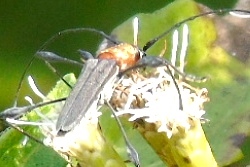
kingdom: Animalia
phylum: Arthropoda
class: Insecta
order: Coleoptera
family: Cerambycidae
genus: Rhopalophora
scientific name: Rhopalophora rugicollis
